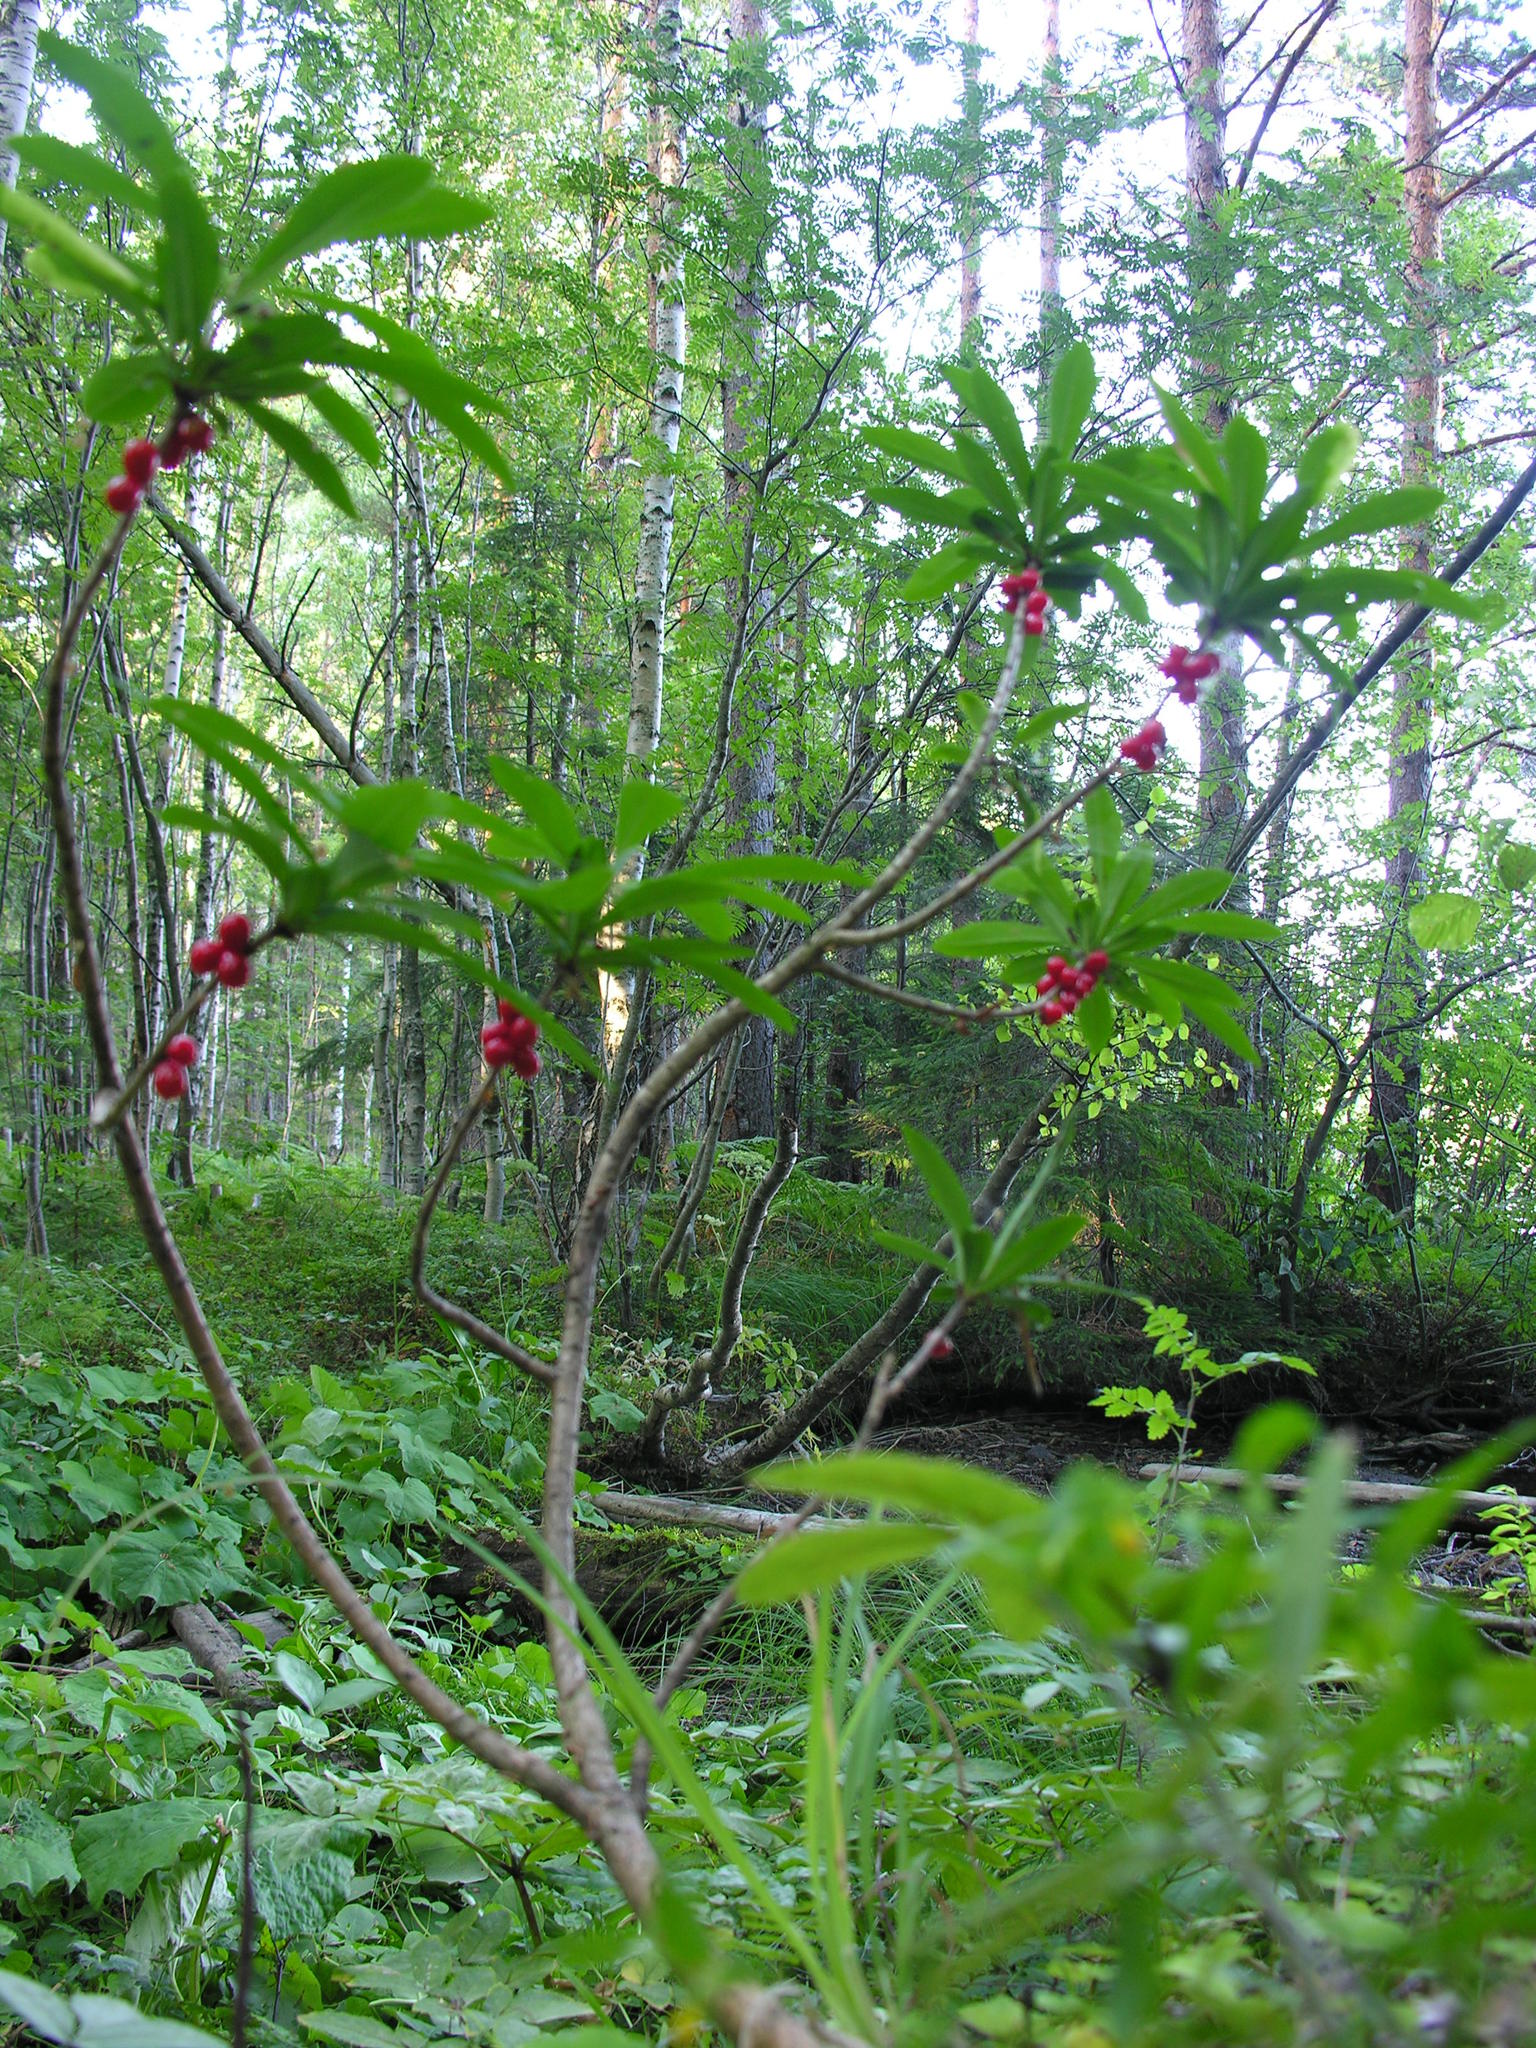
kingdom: Plantae
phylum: Tracheophyta
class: Magnoliopsida
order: Malvales
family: Thymelaeaceae
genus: Daphne
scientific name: Daphne mezereum
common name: Mezereon
